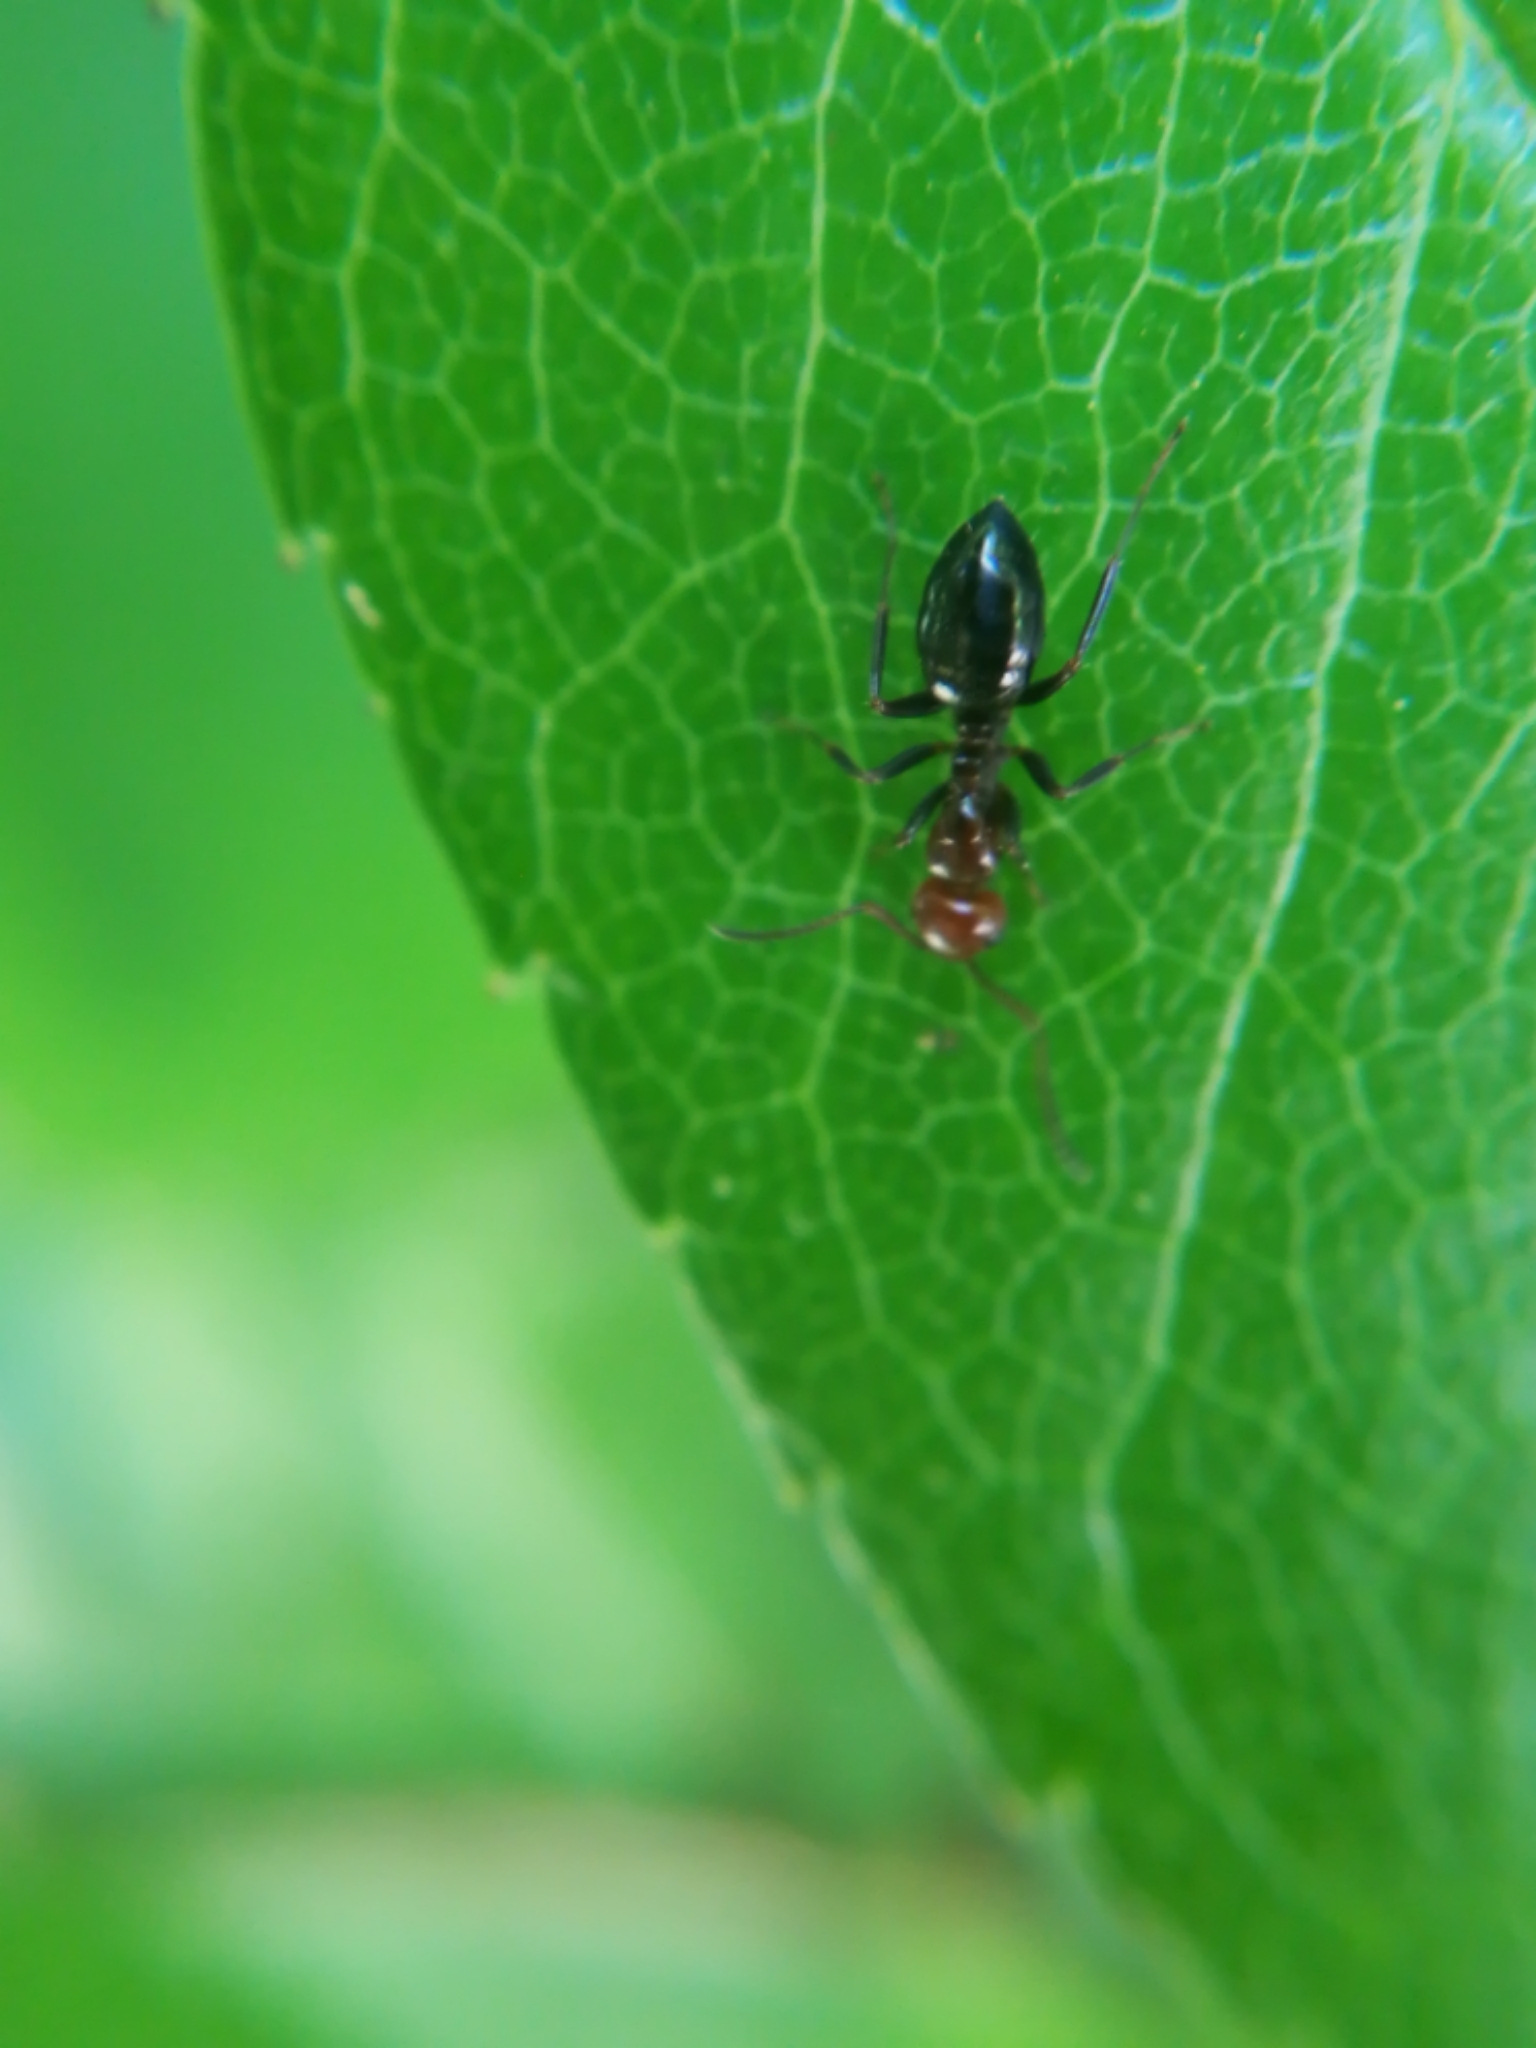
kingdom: Animalia
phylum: Arthropoda
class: Insecta
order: Hymenoptera
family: Formicidae
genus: Camponotus
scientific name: Camponotus lateralis
